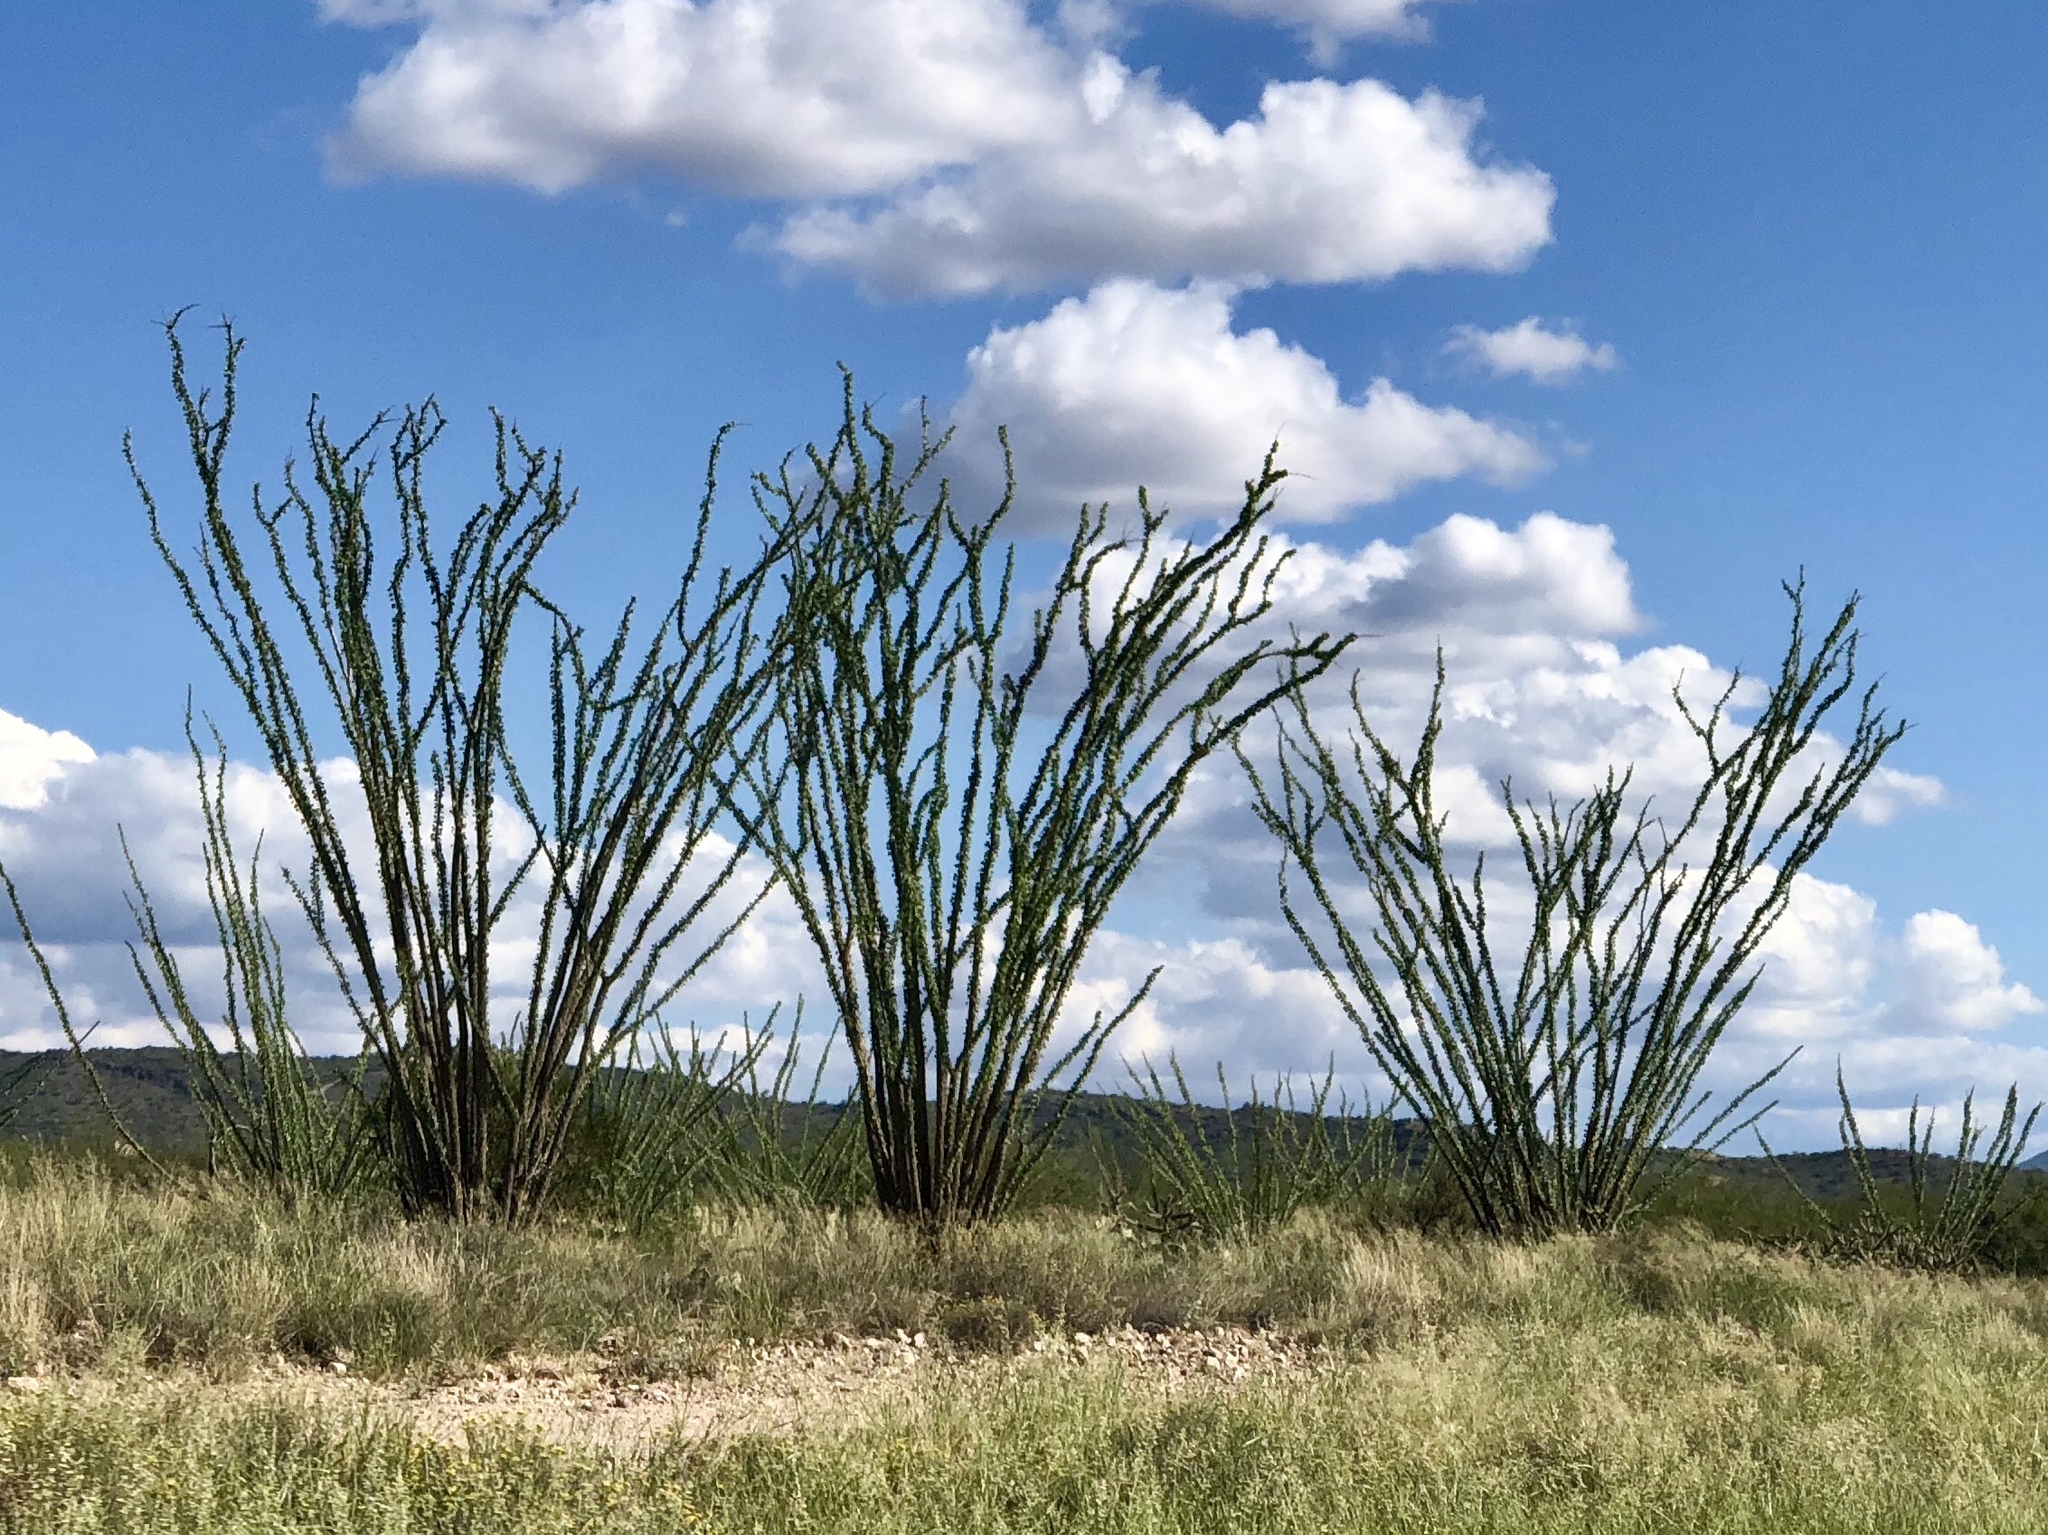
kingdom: Plantae
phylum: Tracheophyta
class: Magnoliopsida
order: Ericales
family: Fouquieriaceae
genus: Fouquieria
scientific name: Fouquieria splendens
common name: Vine-cactus
